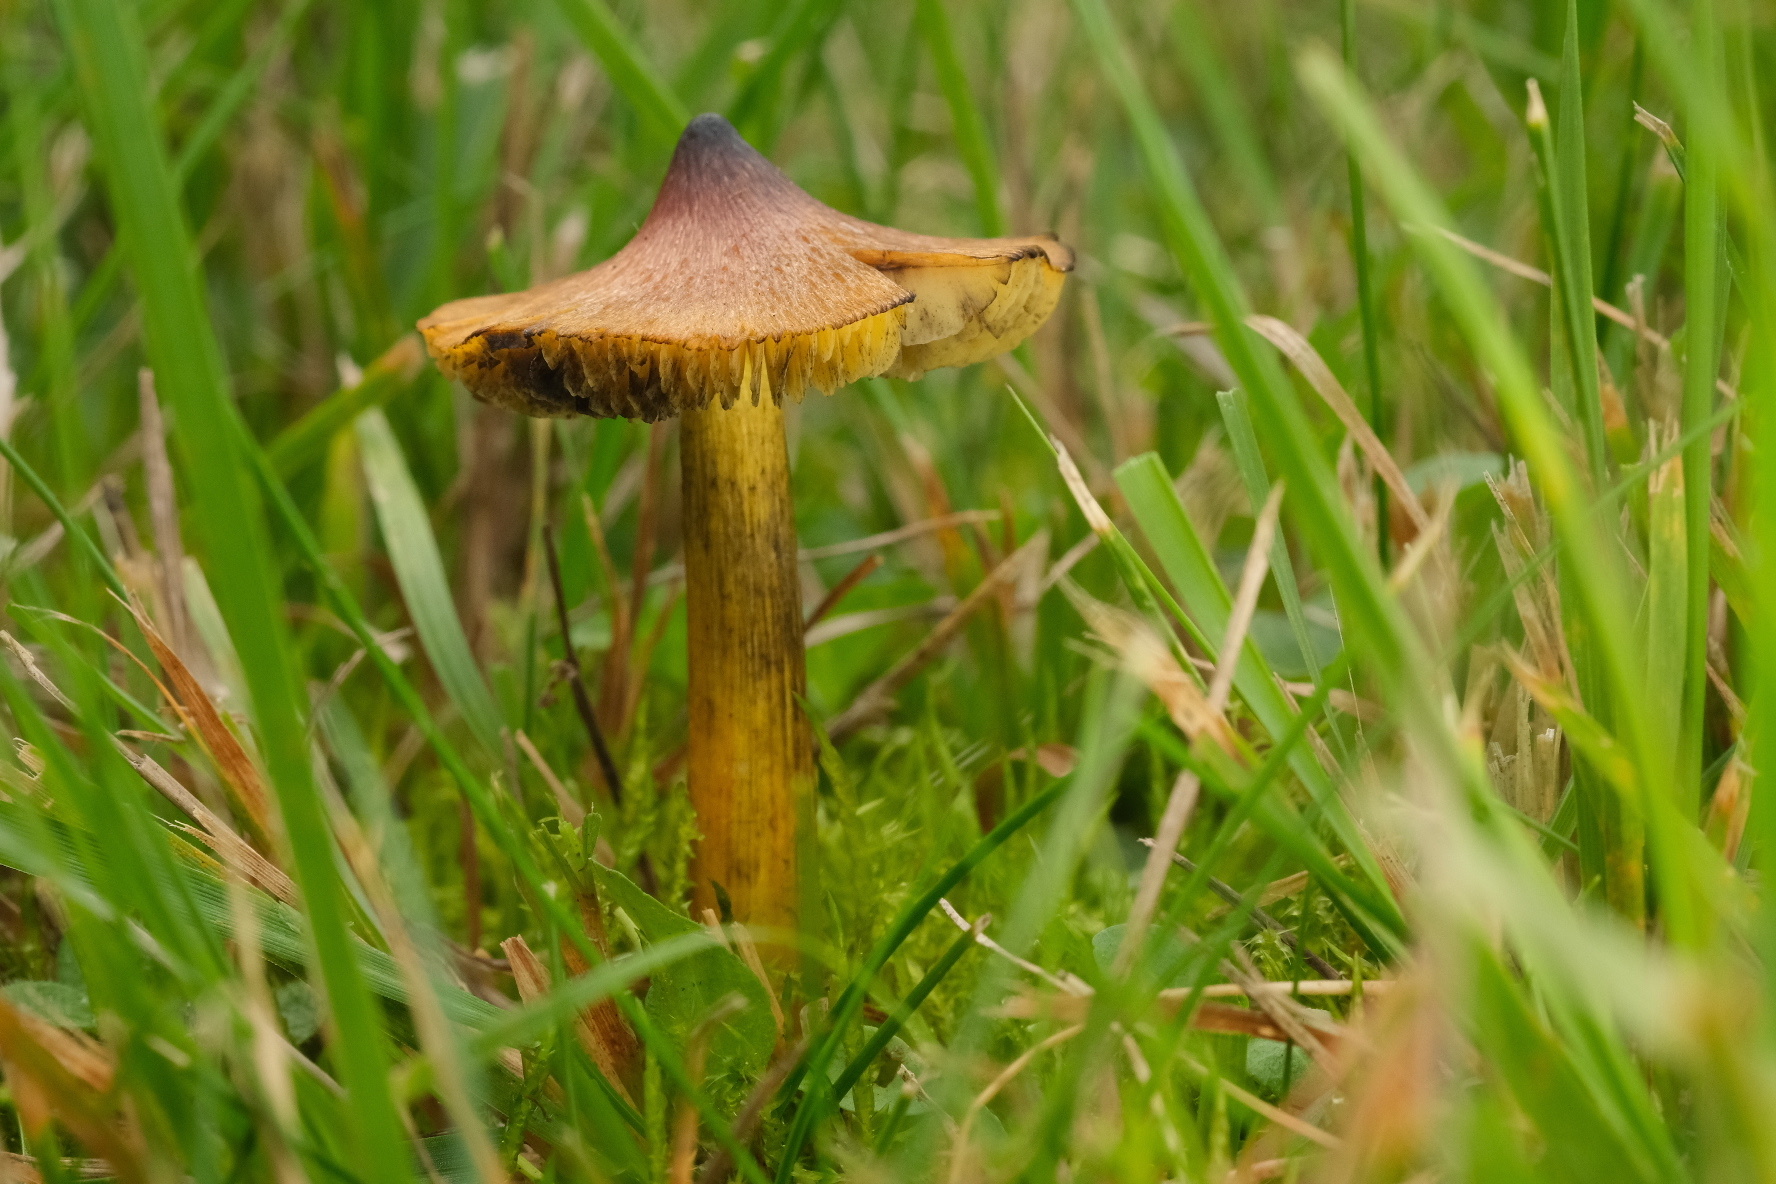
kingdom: Fungi
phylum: Basidiomycota
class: Agaricomycetes
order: Agaricales
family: Hygrophoraceae
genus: Hygrocybe
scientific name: Hygrocybe conica
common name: Blackening wax-cap
